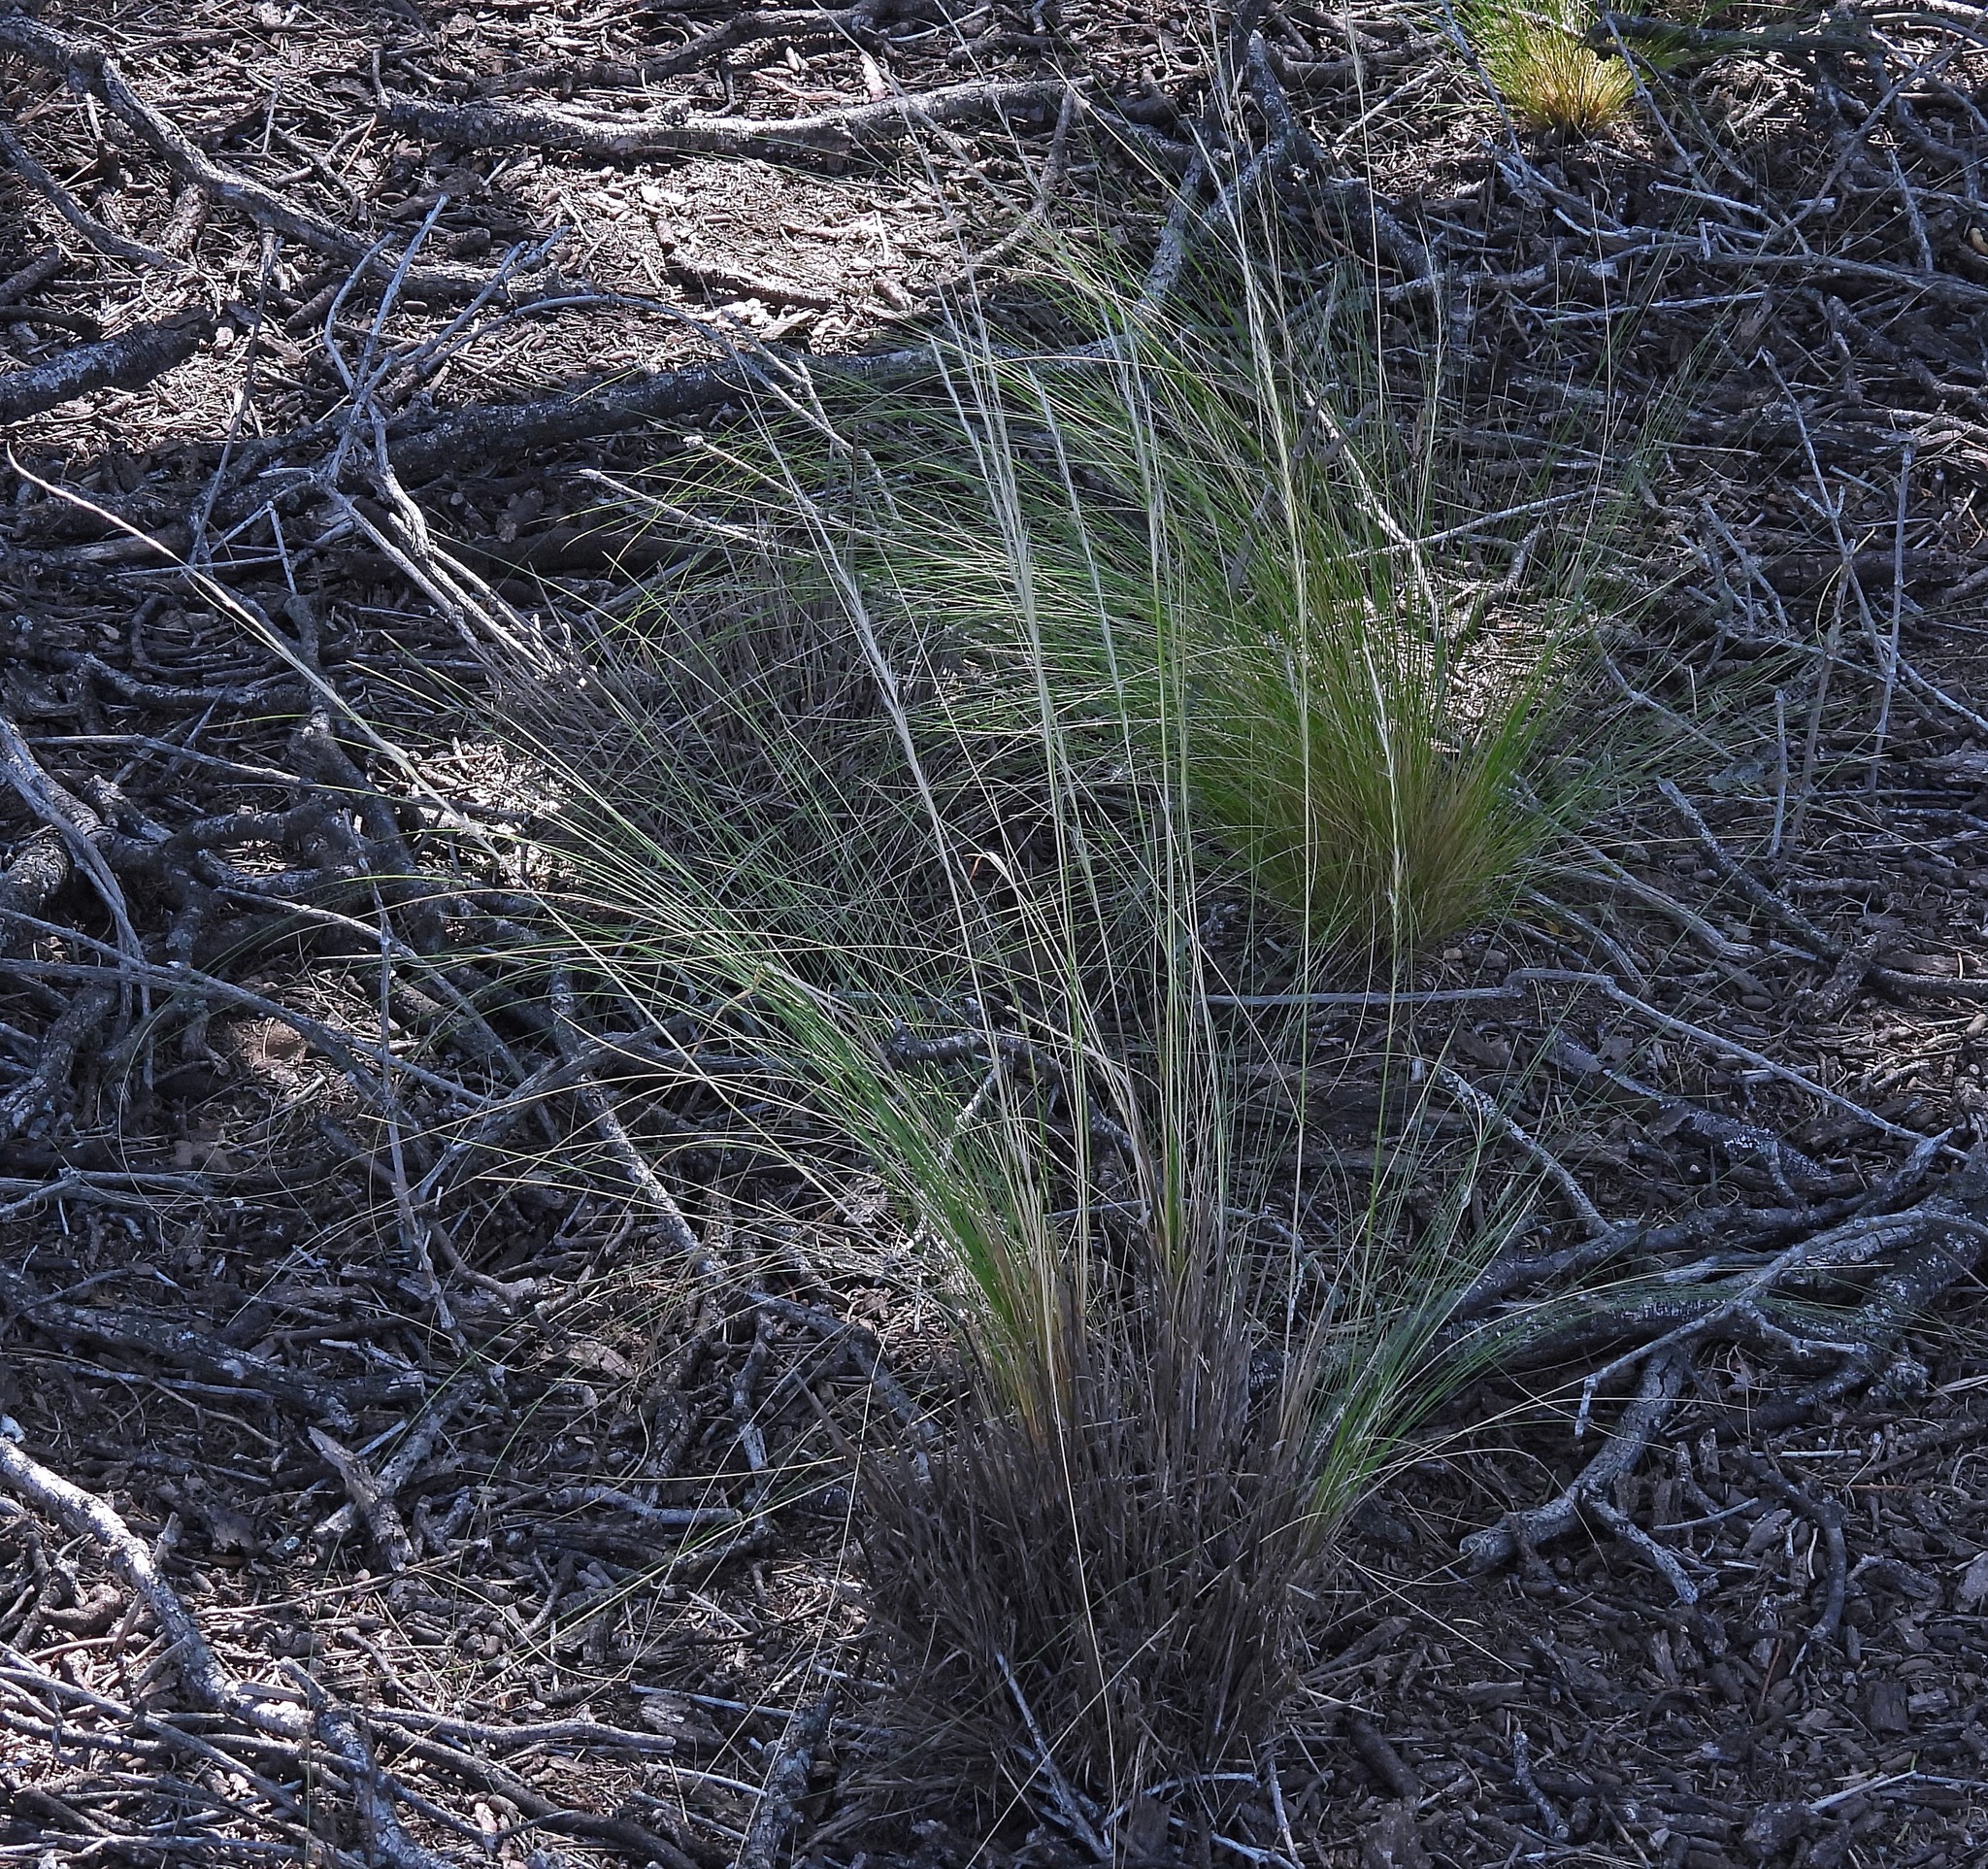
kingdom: Plantae
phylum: Tracheophyta
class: Liliopsida
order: Poales
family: Poaceae
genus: Jarava
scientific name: Jarava ichu
